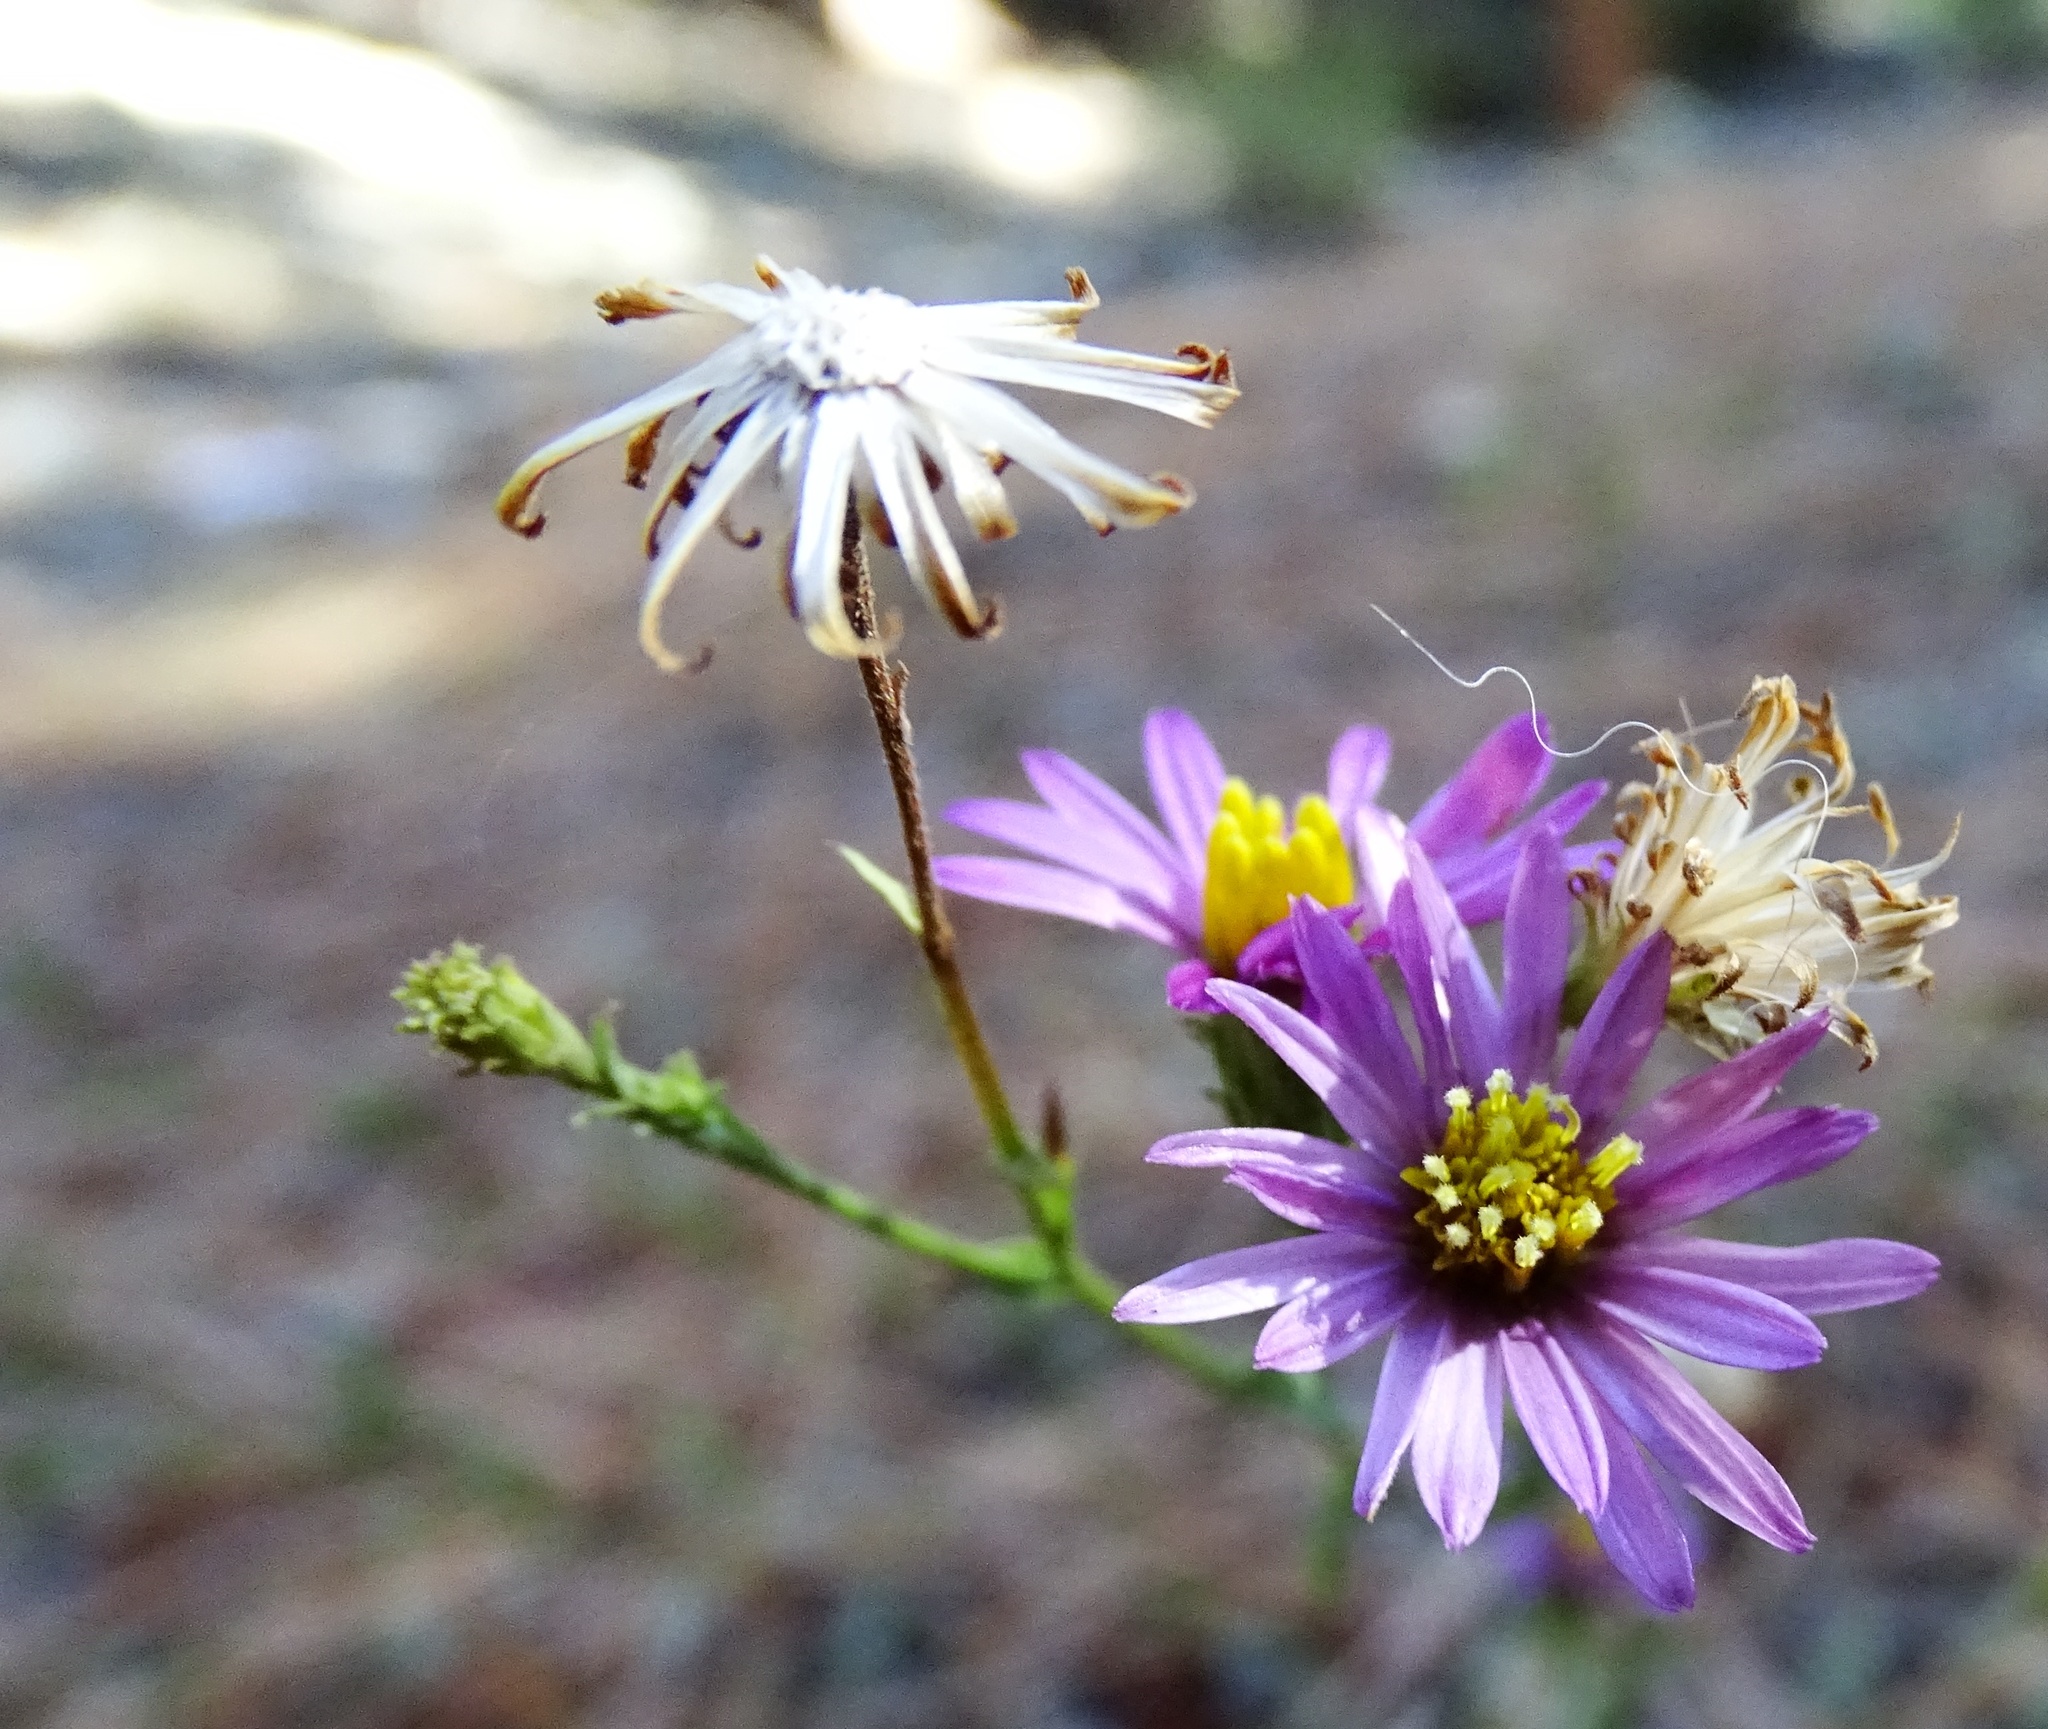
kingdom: Plantae
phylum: Tracheophyta
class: Magnoliopsida
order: Asterales
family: Asteraceae
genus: Corethrogyne
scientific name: Corethrogyne filaginifolia
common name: Sand-aster
